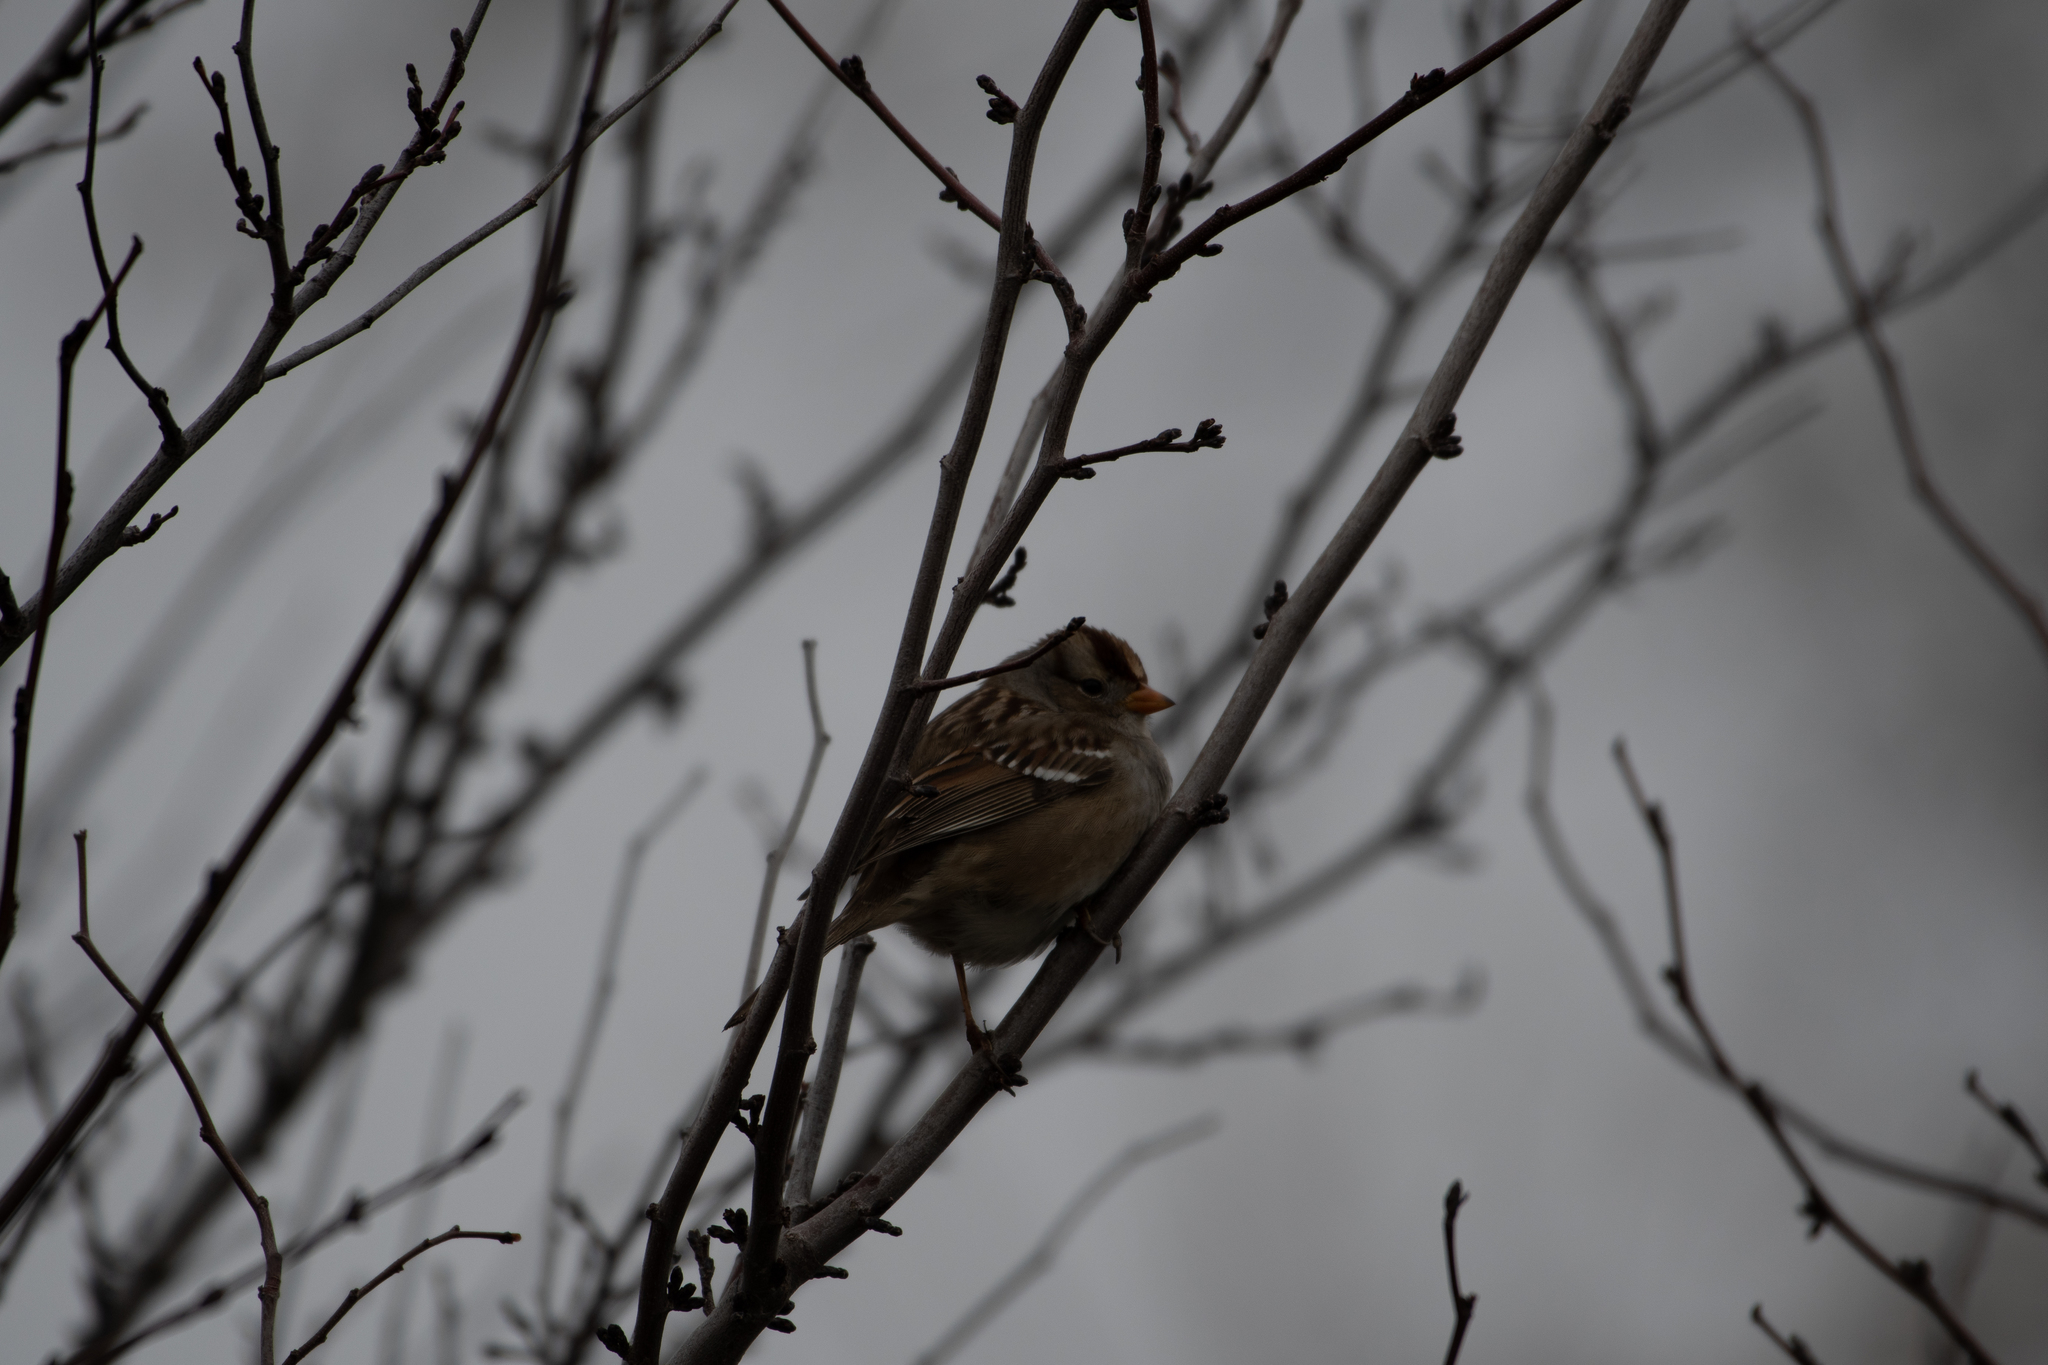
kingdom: Animalia
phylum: Chordata
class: Aves
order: Passeriformes
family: Passerellidae
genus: Zonotrichia
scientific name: Zonotrichia leucophrys
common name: White-crowned sparrow
